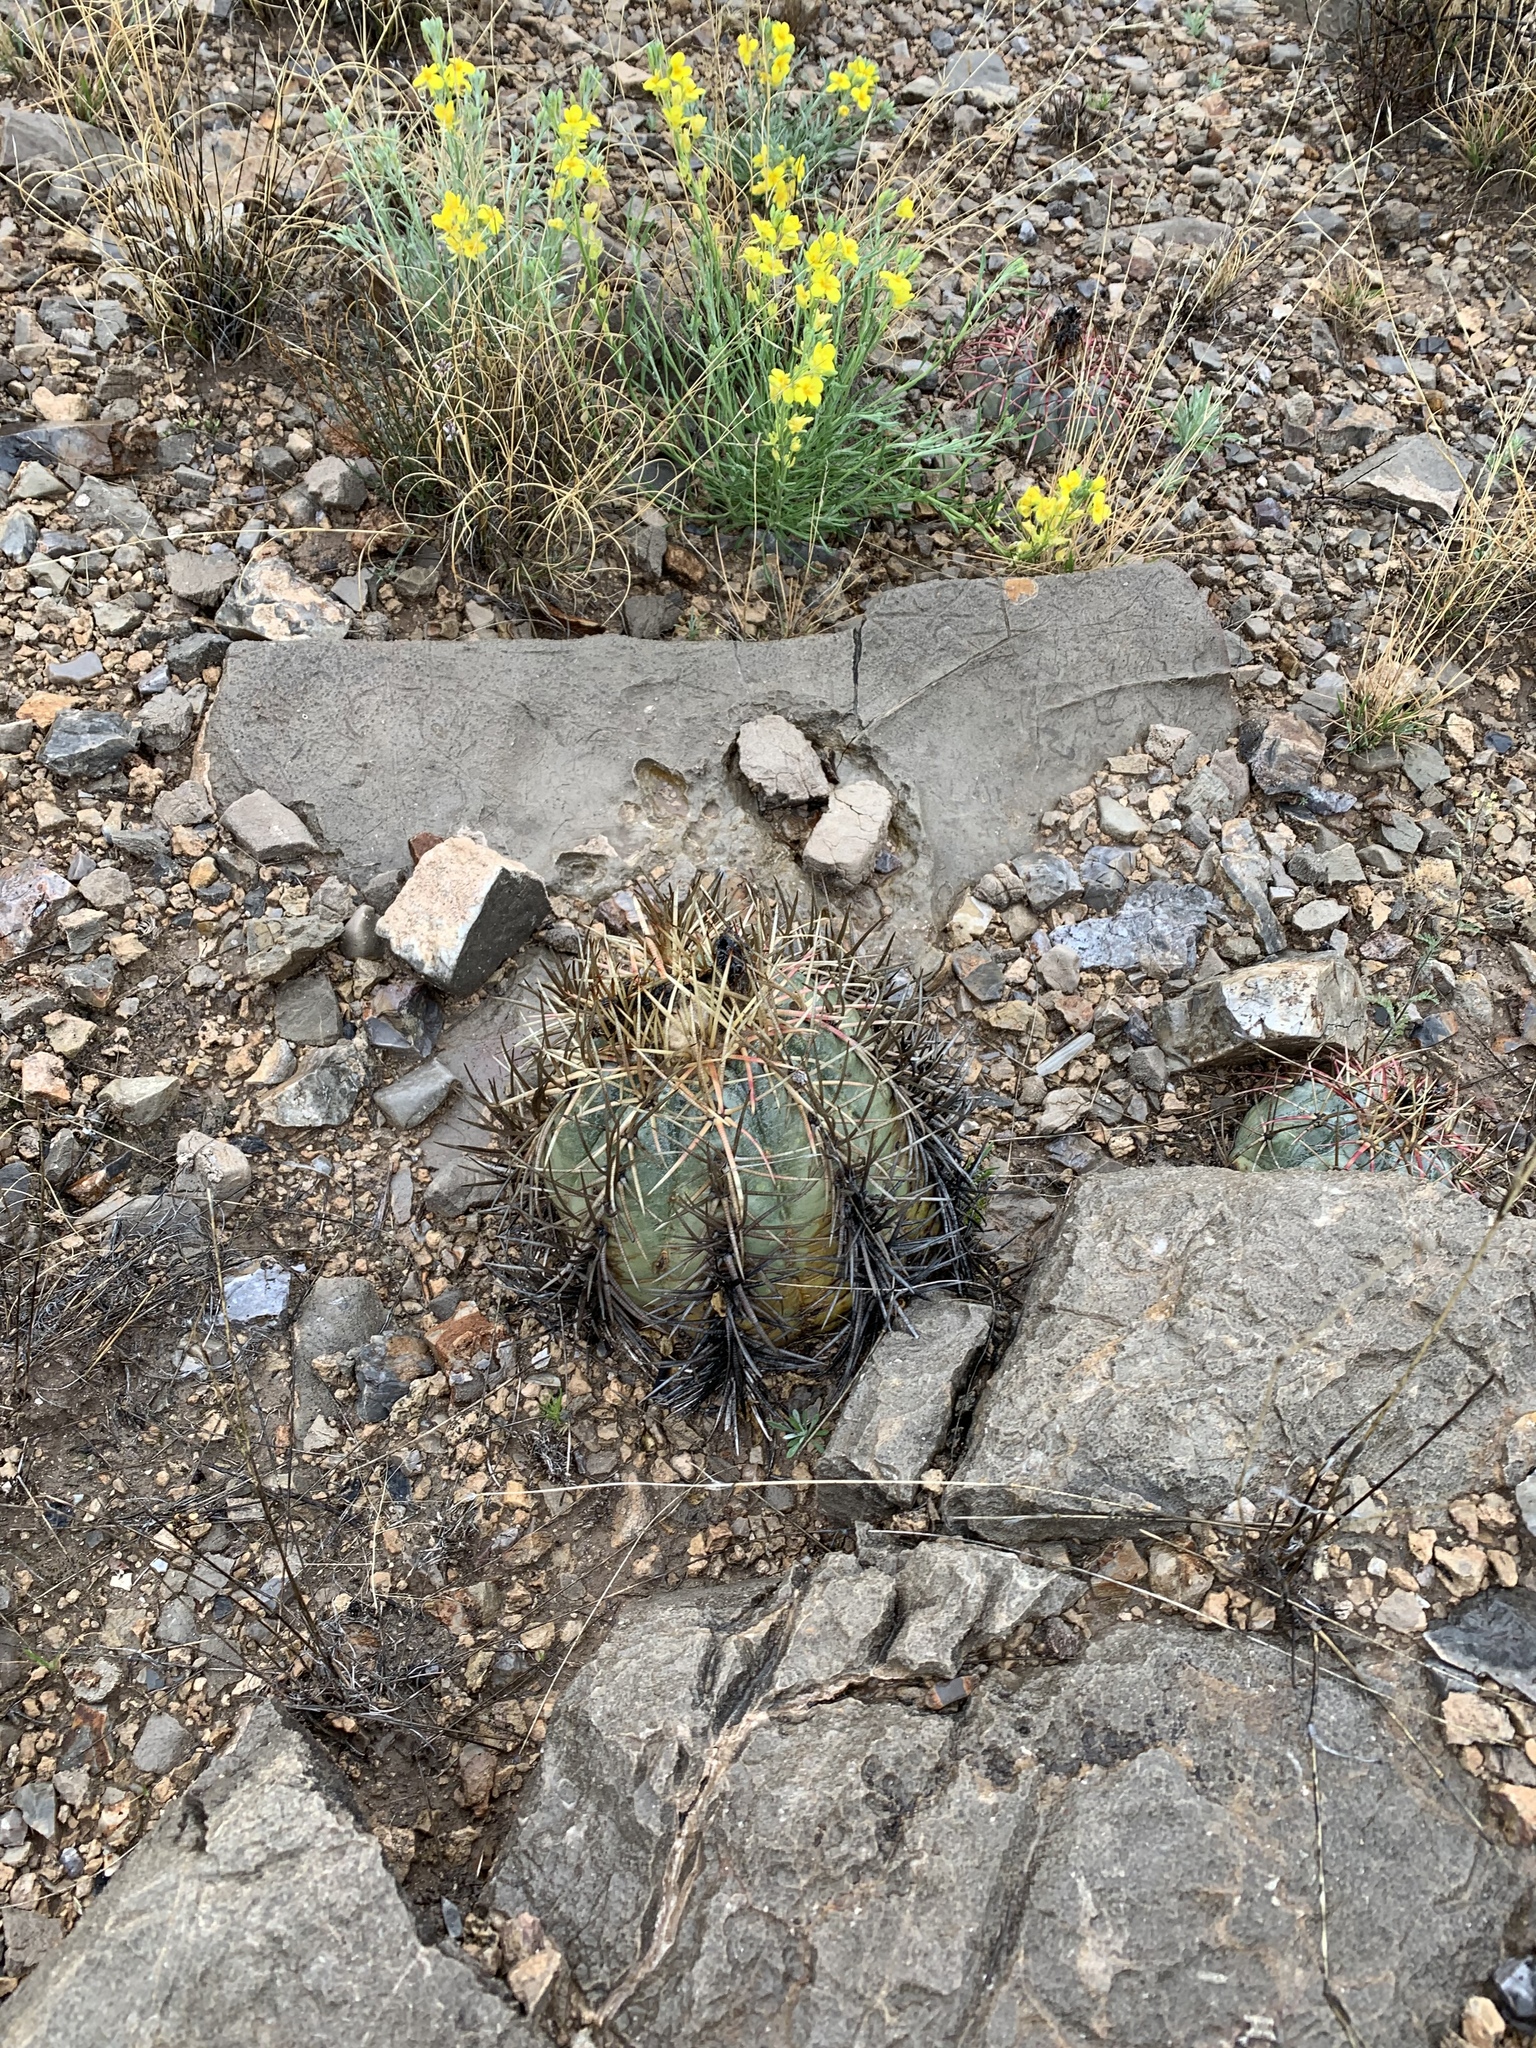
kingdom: Plantae
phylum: Tracheophyta
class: Magnoliopsida
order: Caryophyllales
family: Cactaceae
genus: Echinocactus
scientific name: Echinocactus horizonthalonius
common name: Devilshead
